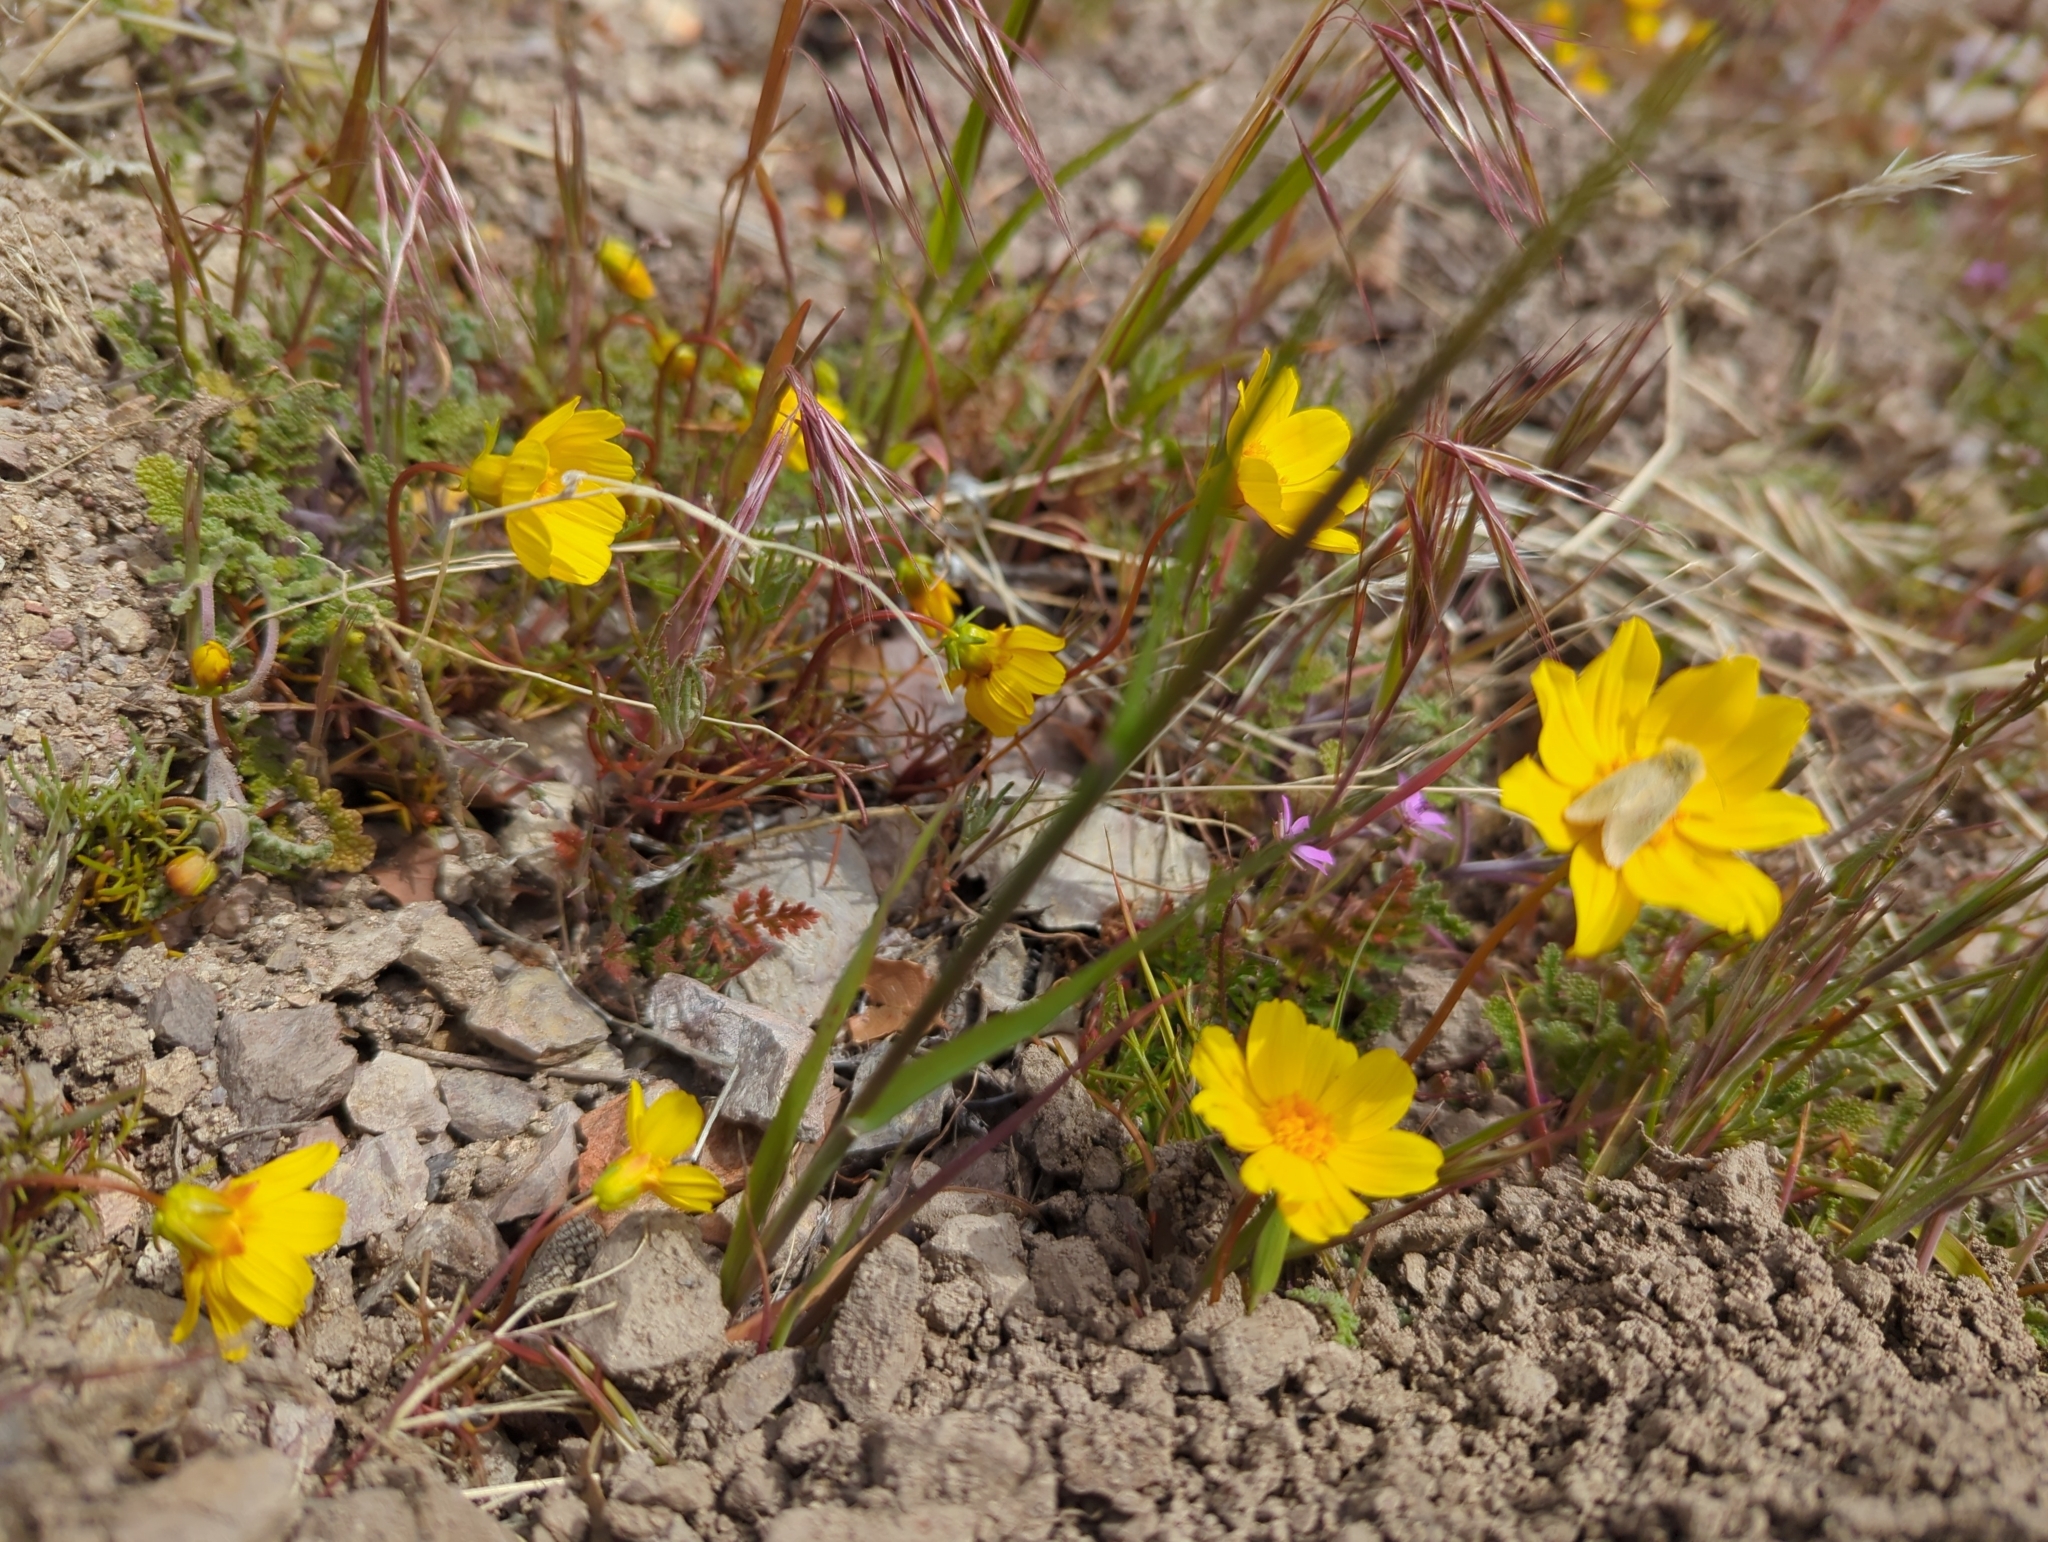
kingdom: Plantae
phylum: Tracheophyta
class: Magnoliopsida
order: Asterales
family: Asteraceae
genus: Coreopsis
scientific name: Coreopsis bigelovii
